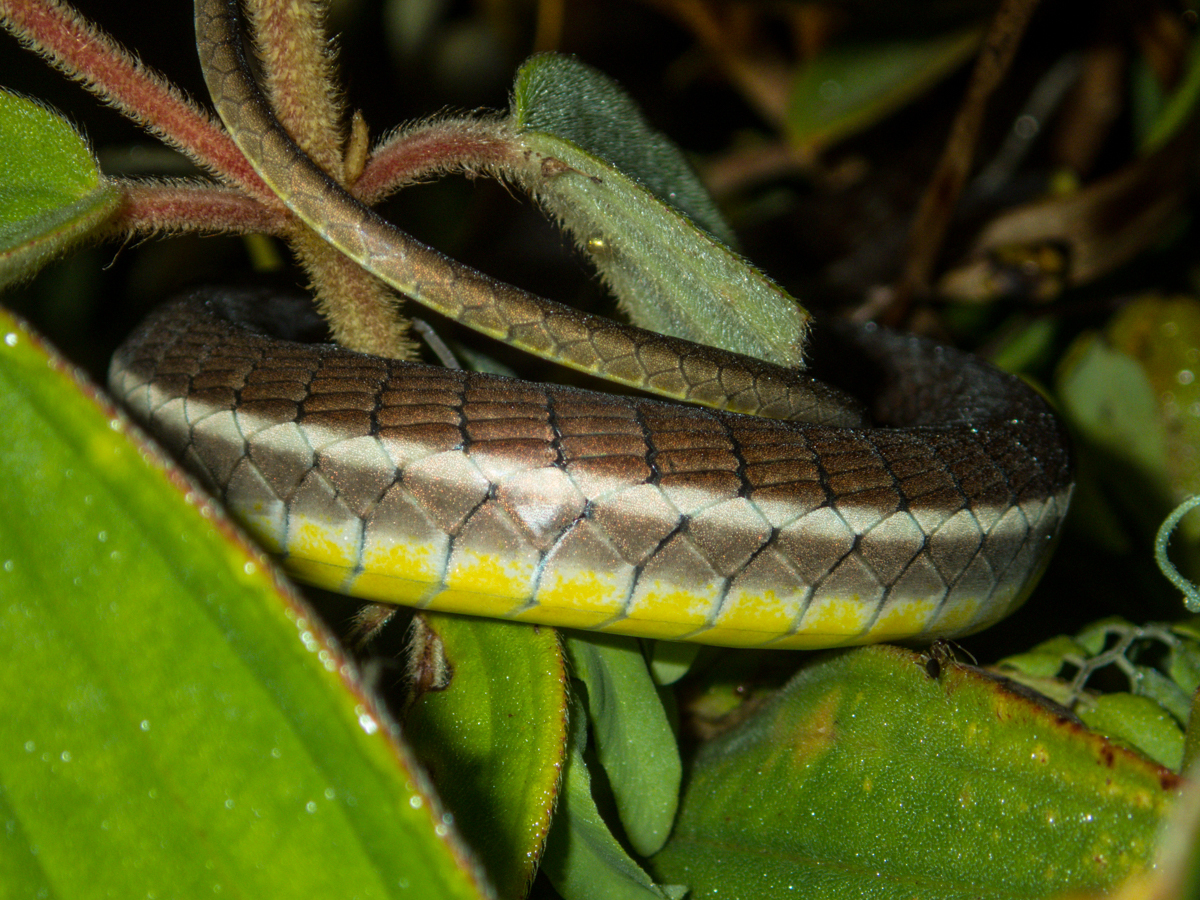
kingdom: Animalia
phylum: Chordata
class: Squamata
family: Colubridae
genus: Dendrelaphis
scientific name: Dendrelaphis subocularis
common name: Mountain bronzeback tree snake
